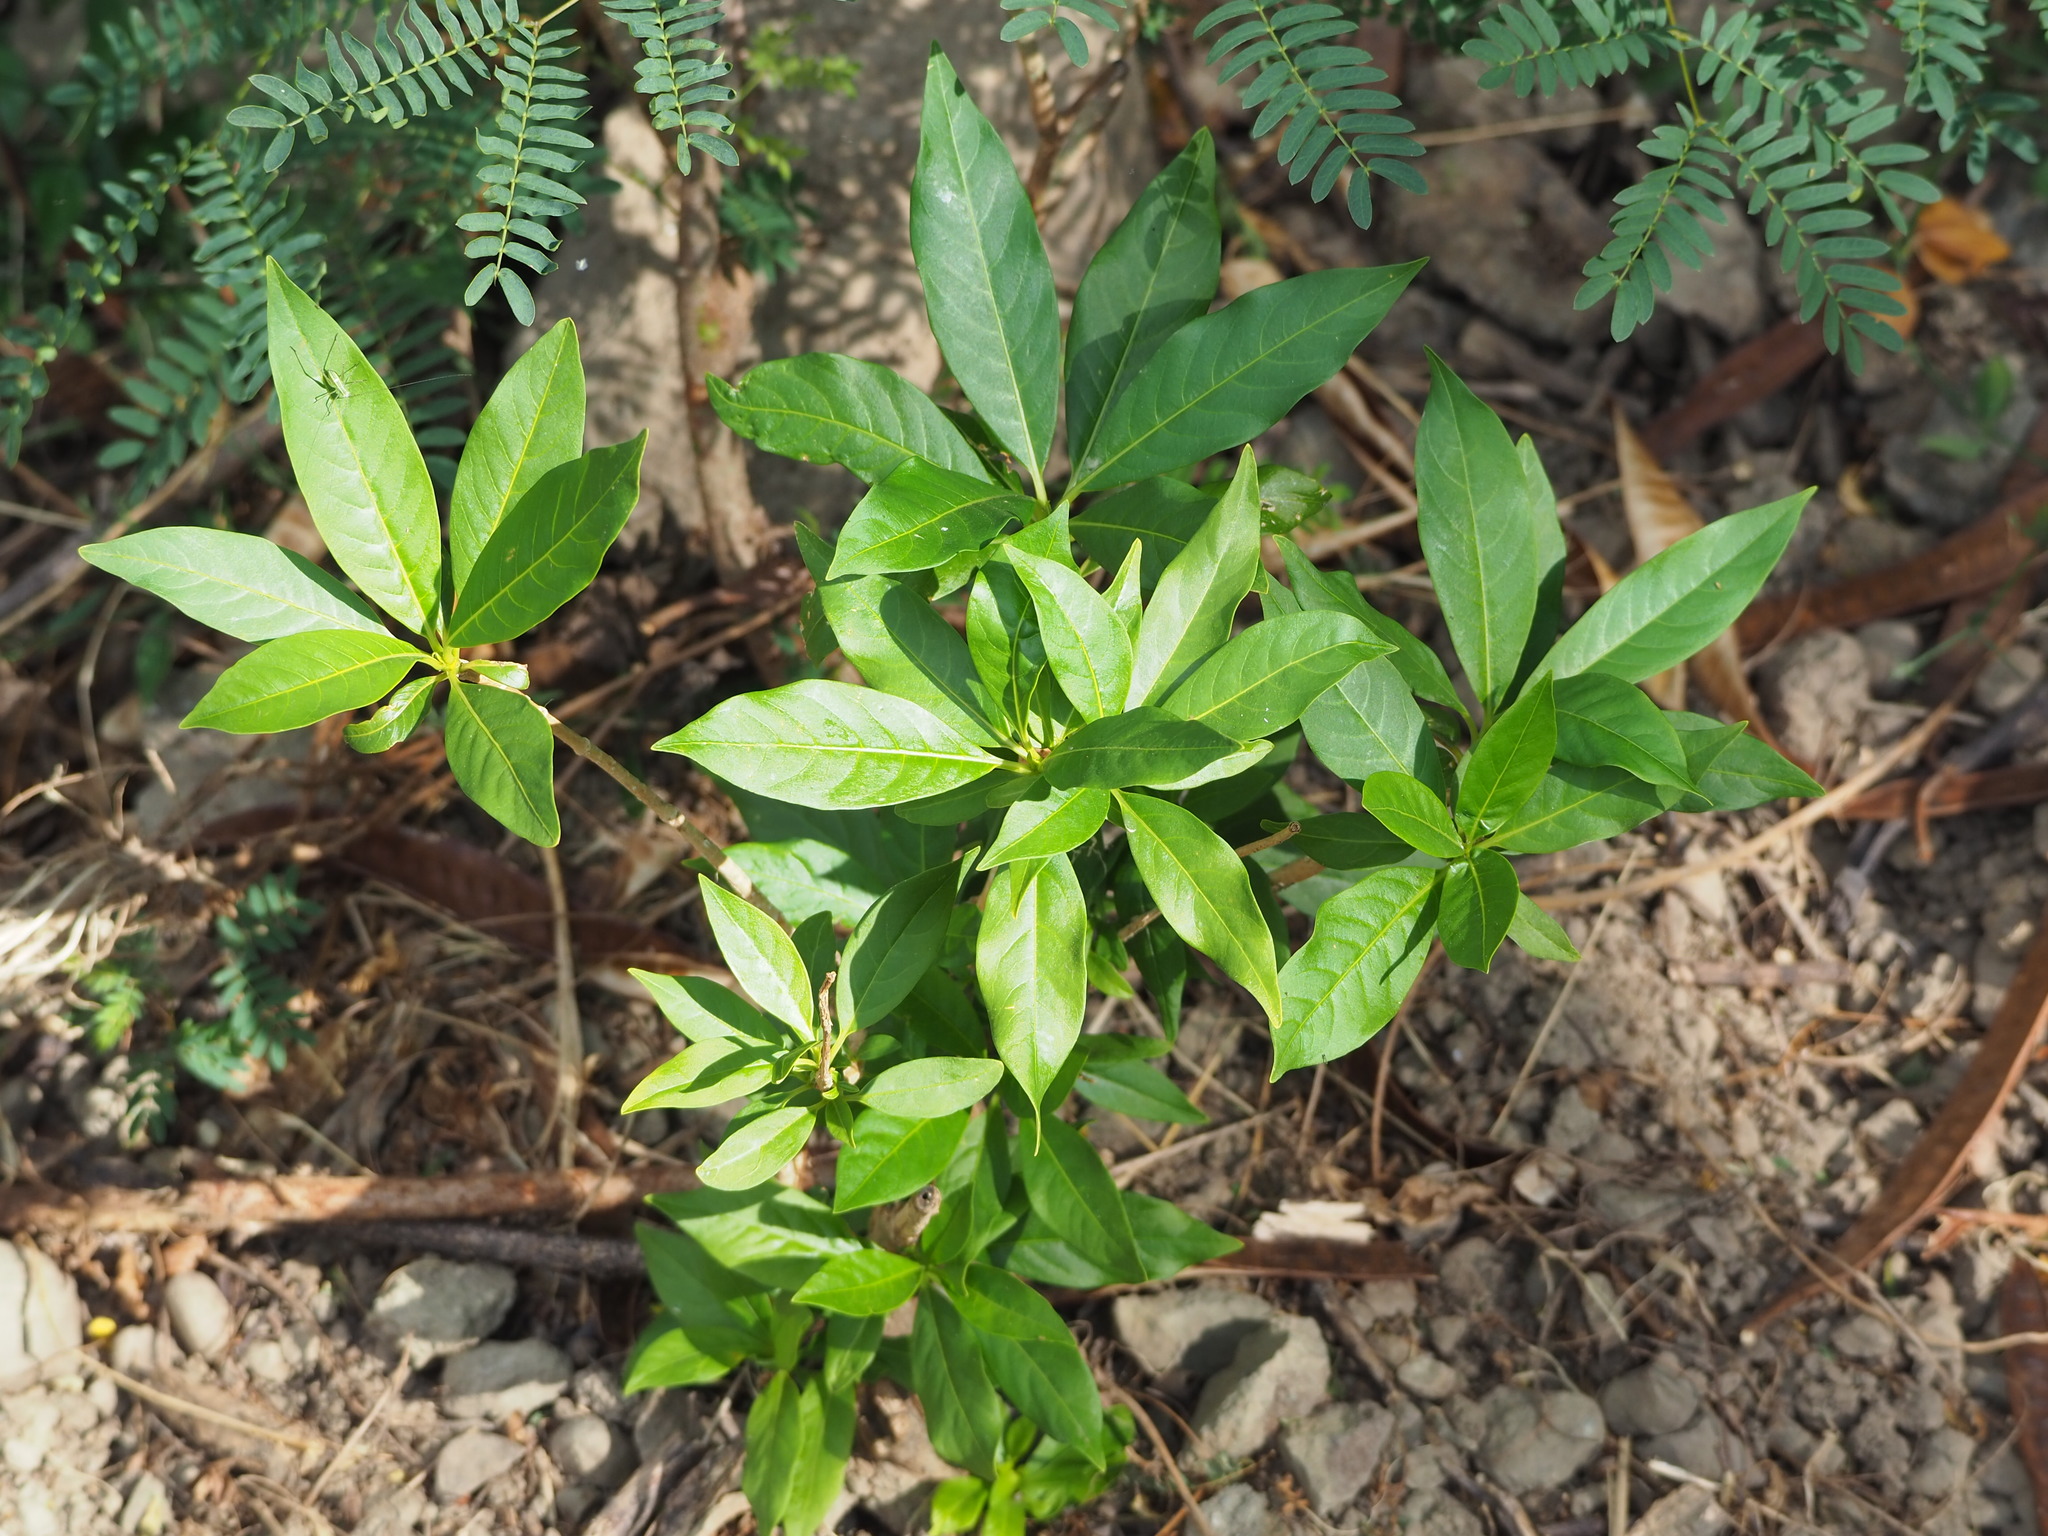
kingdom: Plantae
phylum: Tracheophyta
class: Magnoliopsida
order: Gentianales
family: Apocynaceae
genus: Rauvolfia
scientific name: Rauvolfia verticillata
